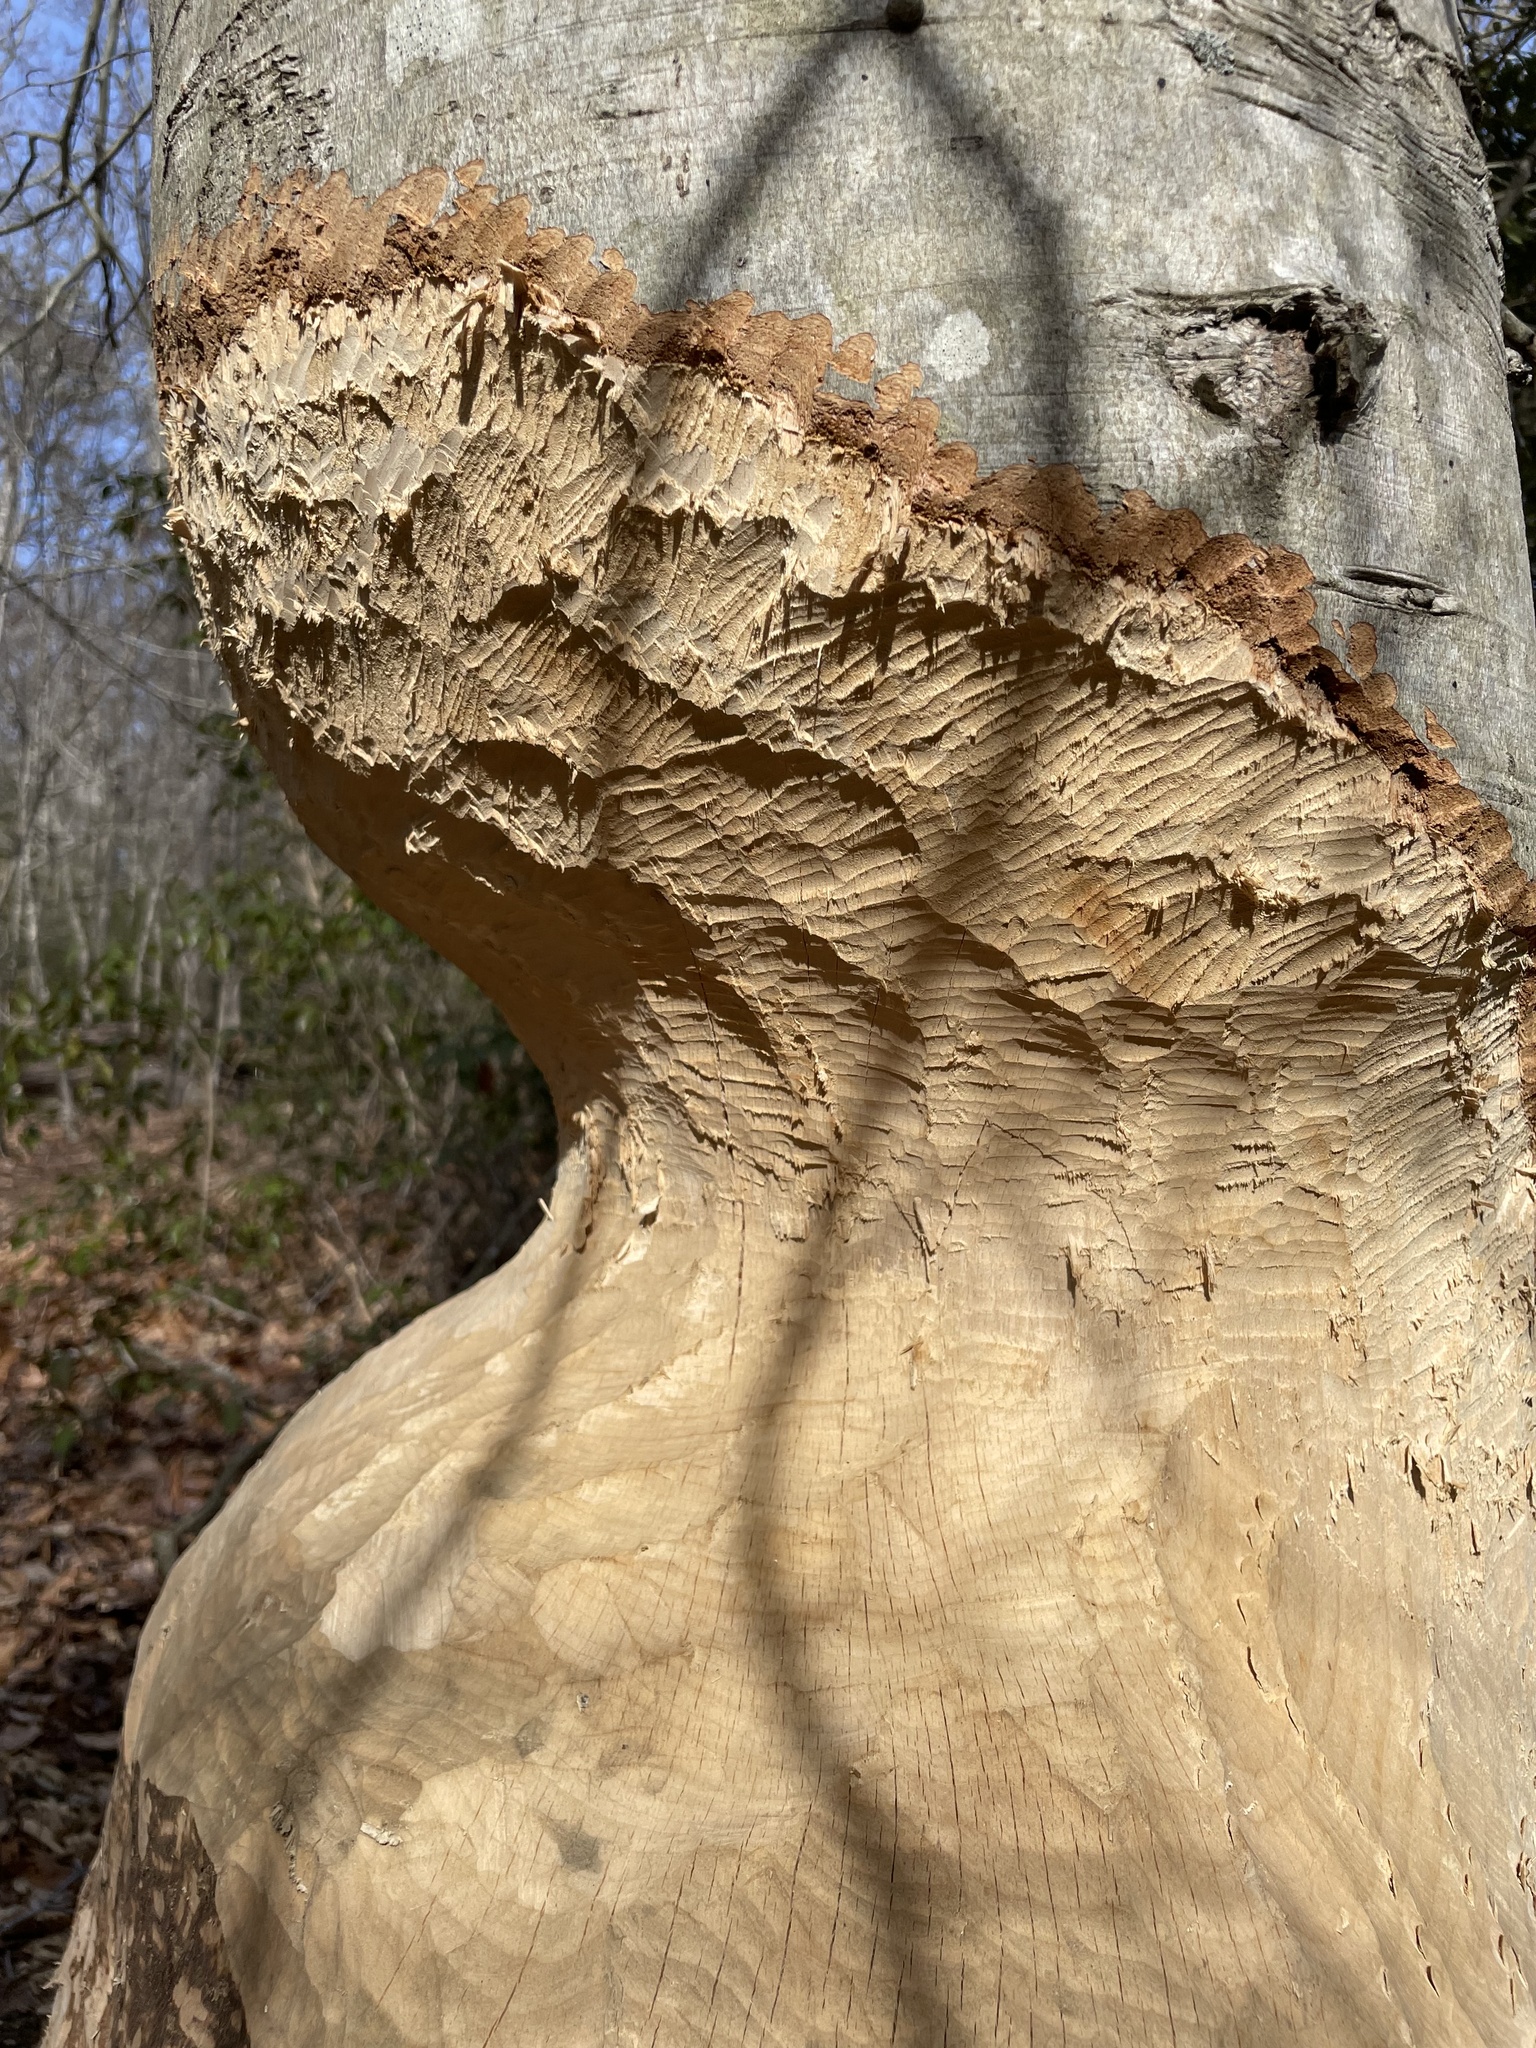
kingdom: Animalia
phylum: Chordata
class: Mammalia
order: Rodentia
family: Castoridae
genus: Castor
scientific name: Castor canadensis
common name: American beaver
